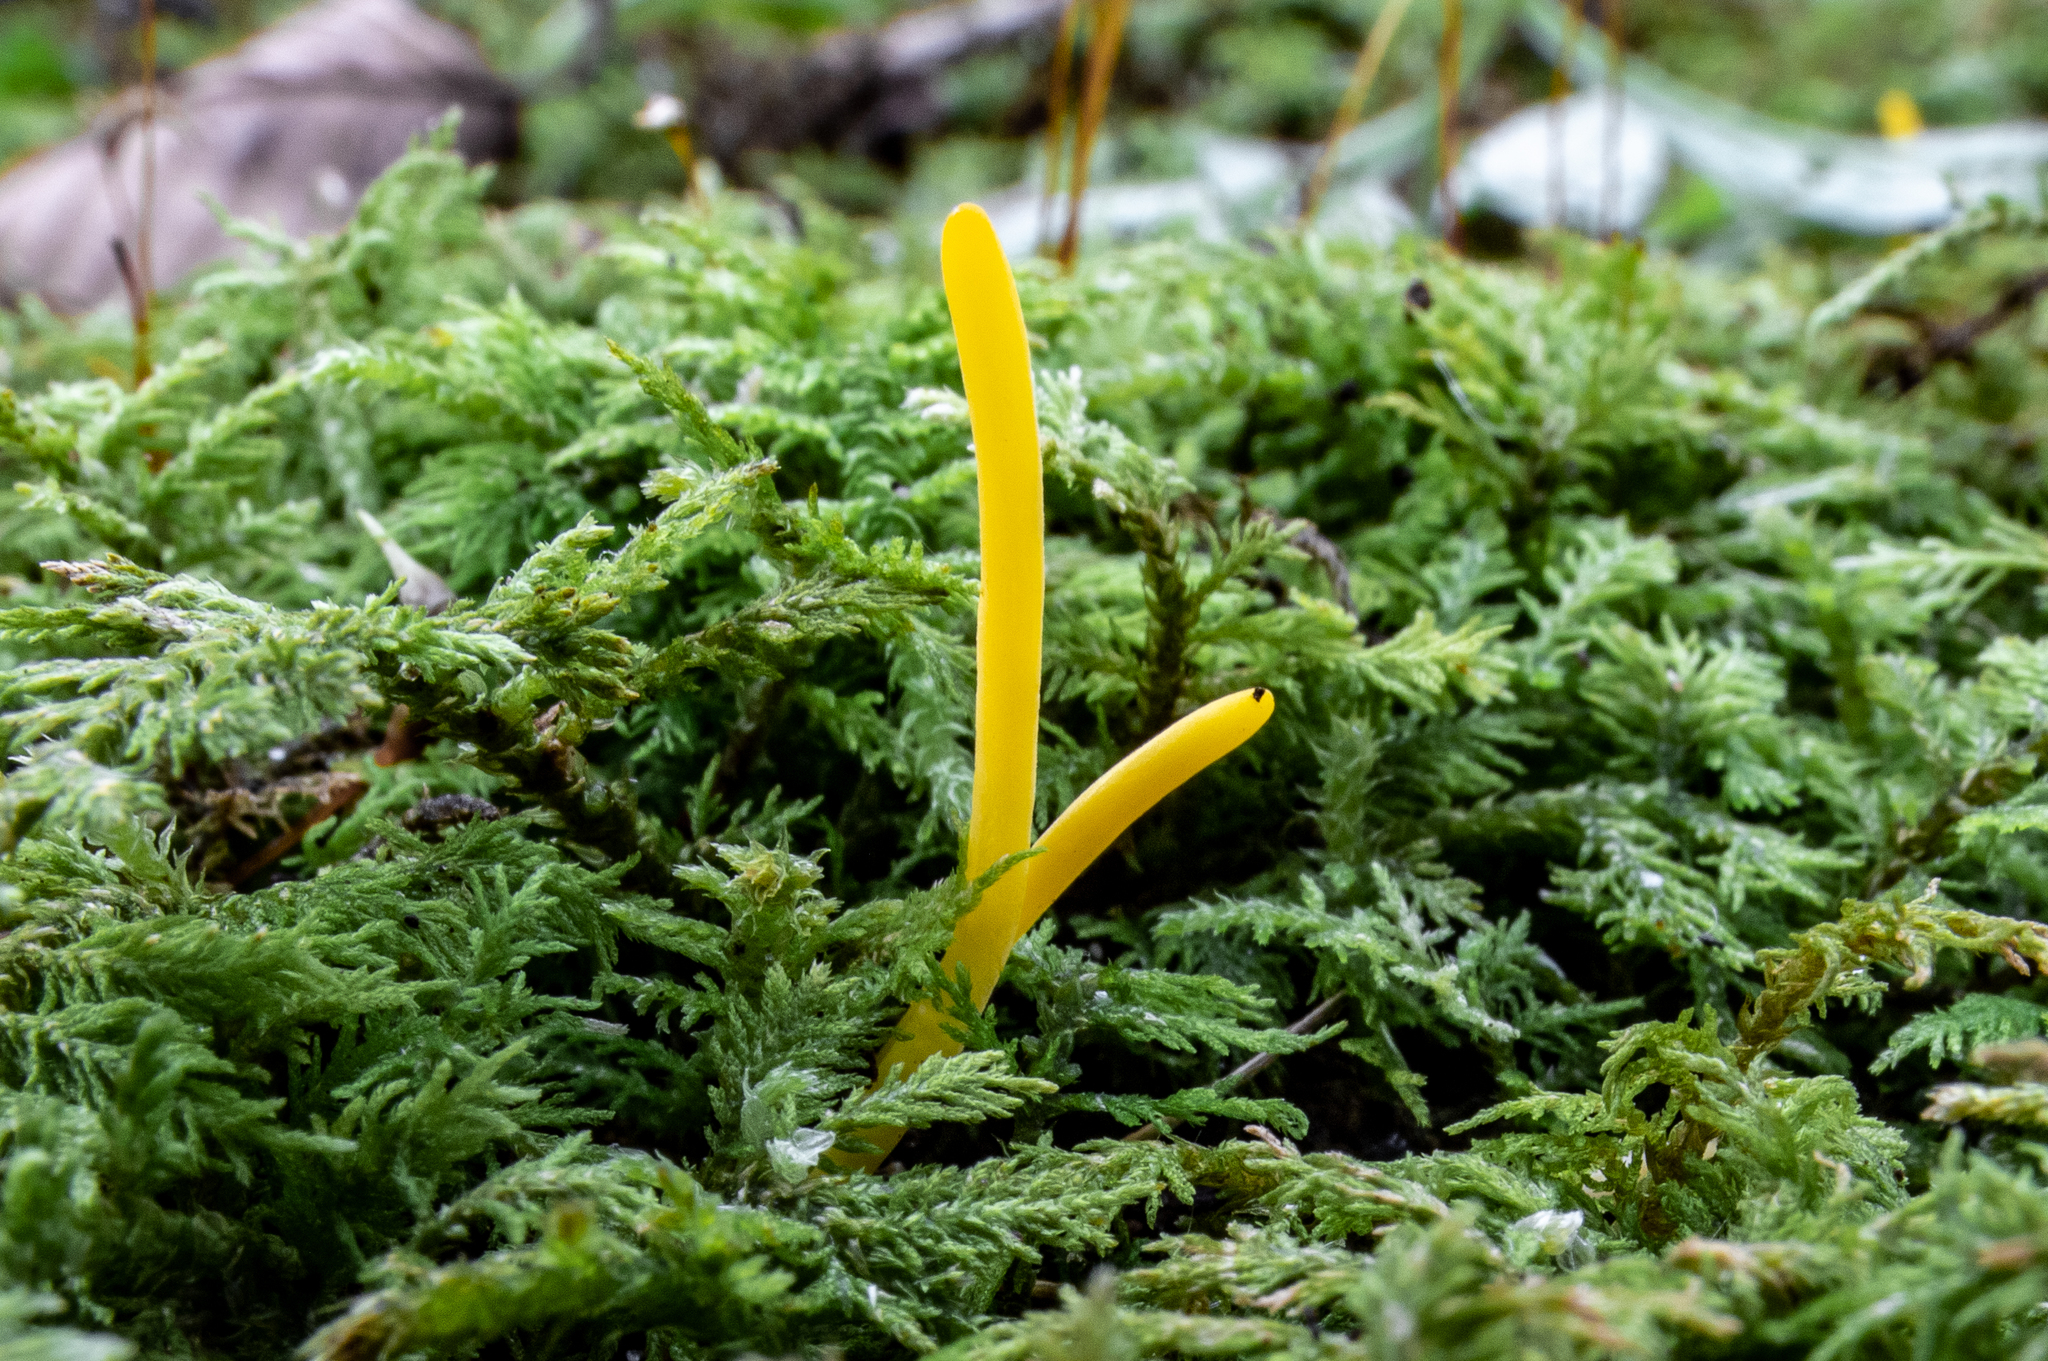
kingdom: Fungi
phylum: Basidiomycota
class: Agaricomycetes
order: Agaricales
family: Clavariaceae
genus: Clavulinopsis
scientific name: Clavulinopsis laeticolor
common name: Handsome club
